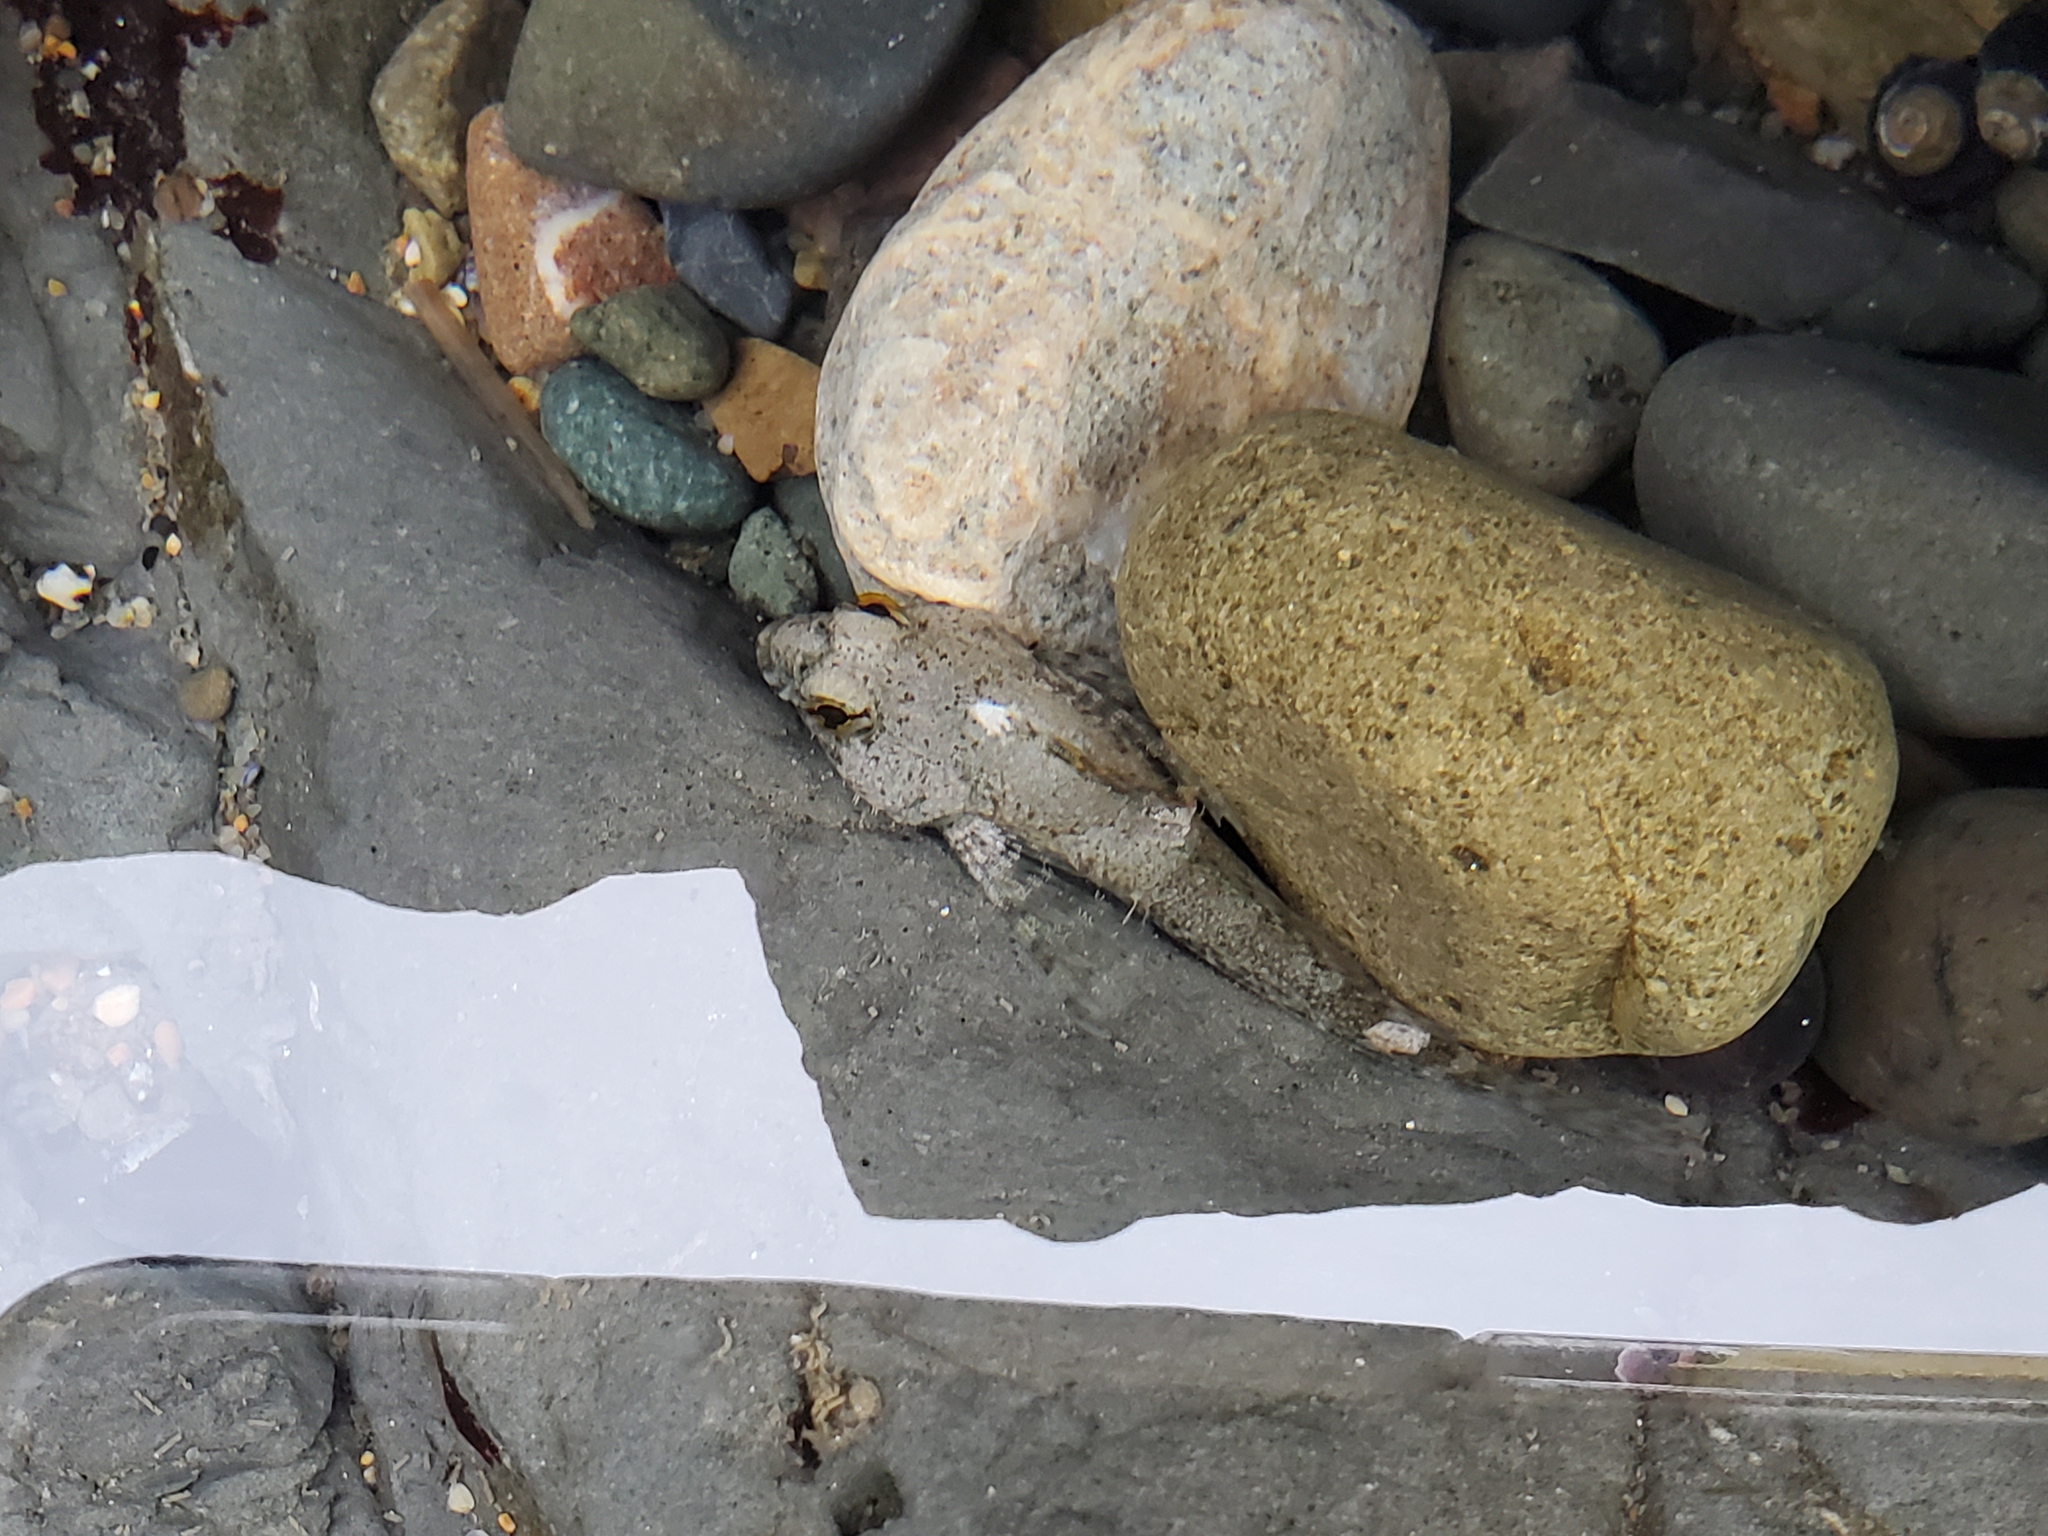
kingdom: Animalia
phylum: Chordata
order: Scorpaeniformes
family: Cottidae
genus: Clinocottus
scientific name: Clinocottus analis
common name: Woolly sculpin
